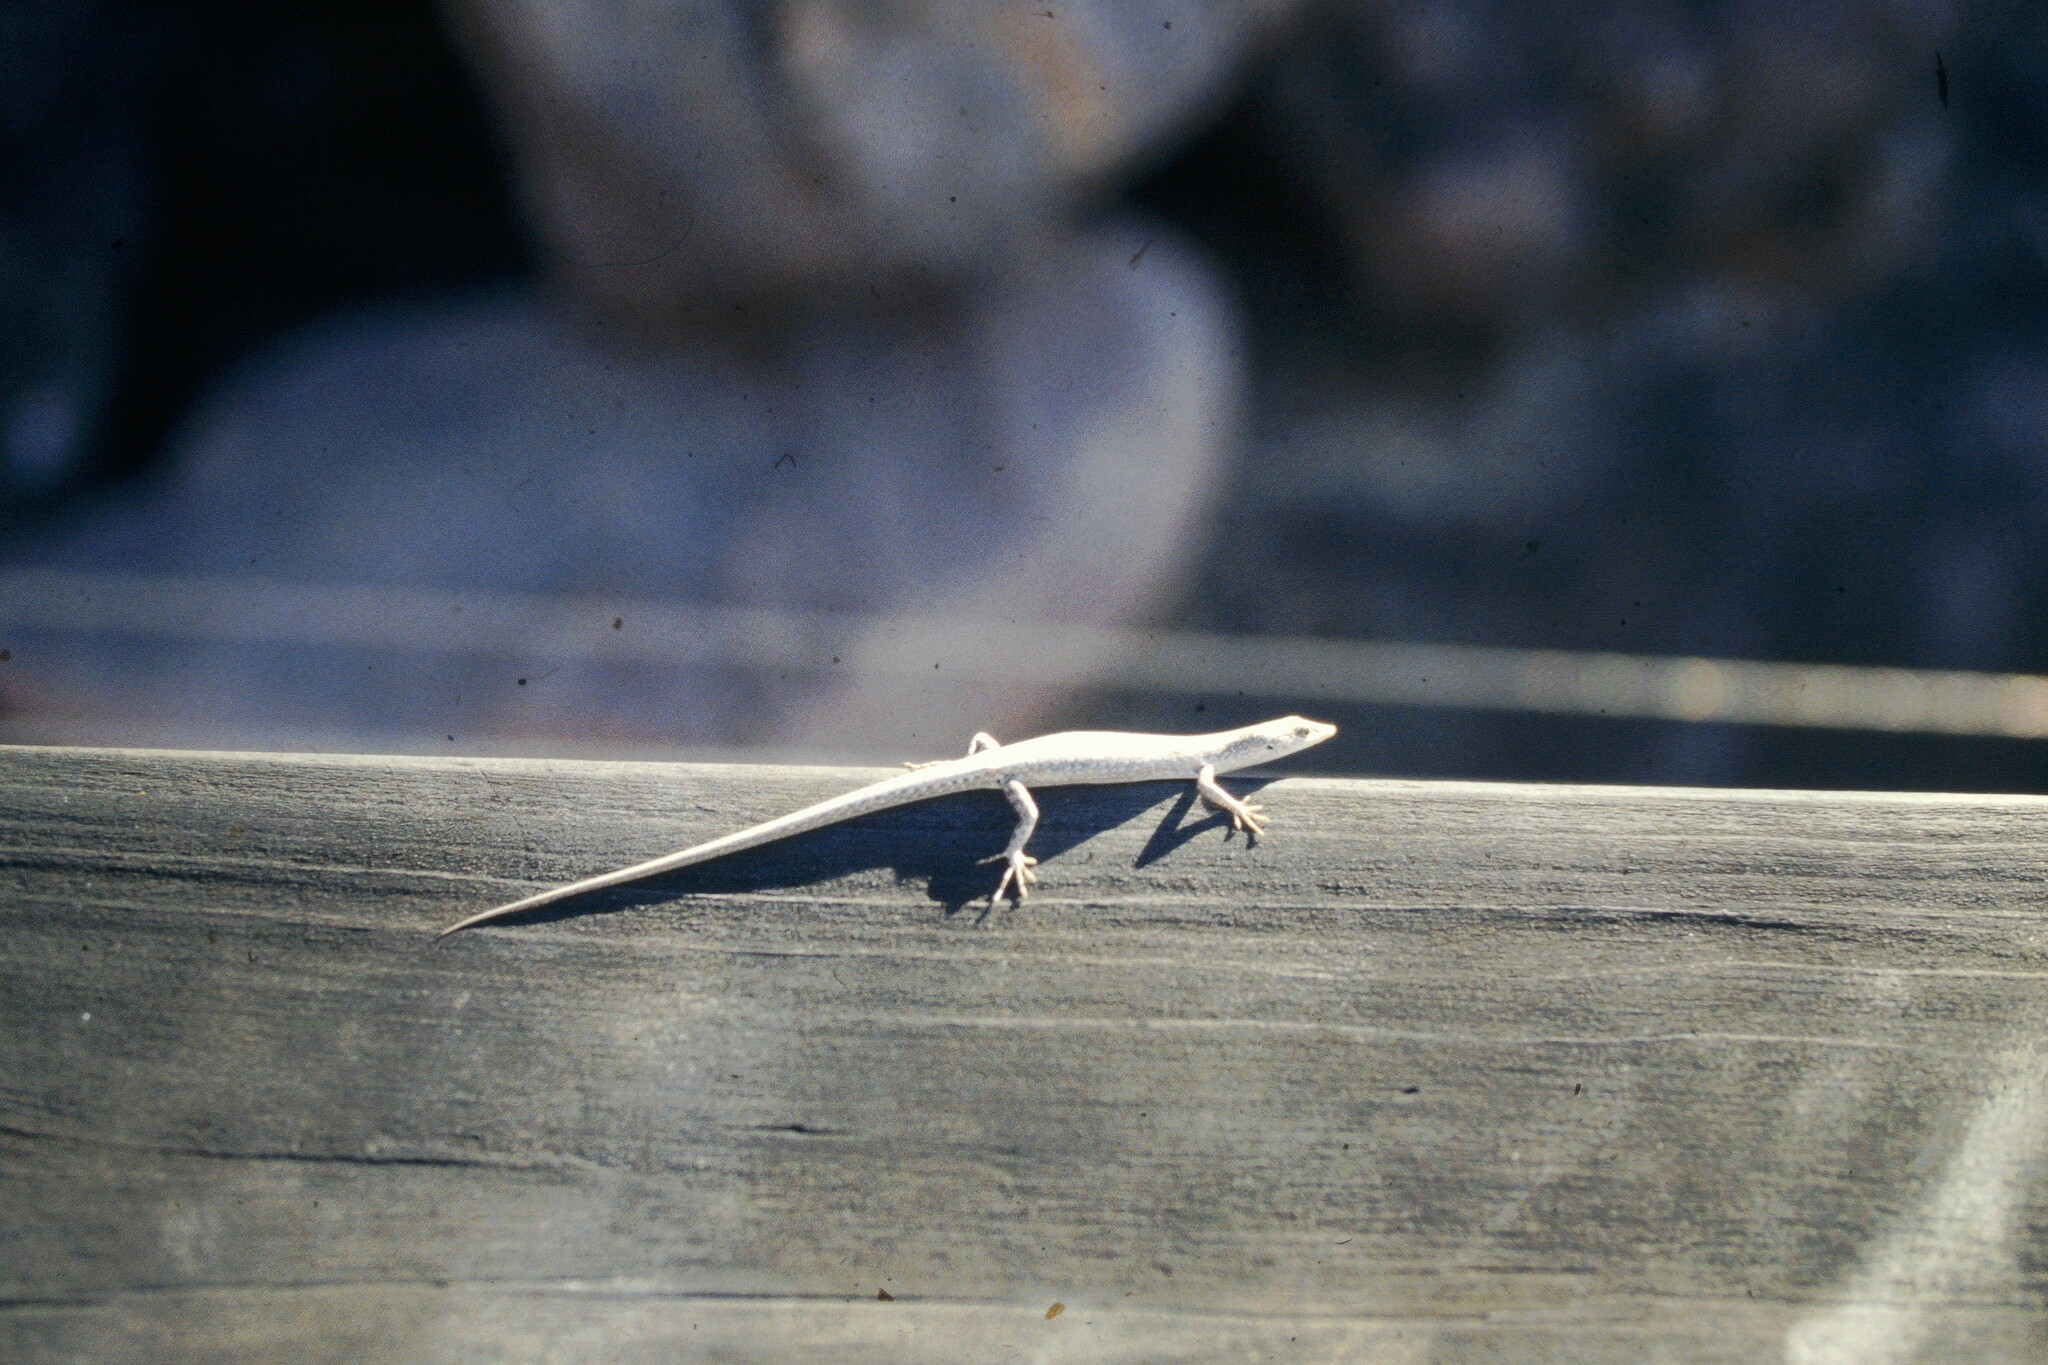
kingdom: Animalia
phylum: Chordata
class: Squamata
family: Scincidae
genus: Cryptoblepharus
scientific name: Cryptoblepharus metallicus
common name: Metallic snake-eyed skink
